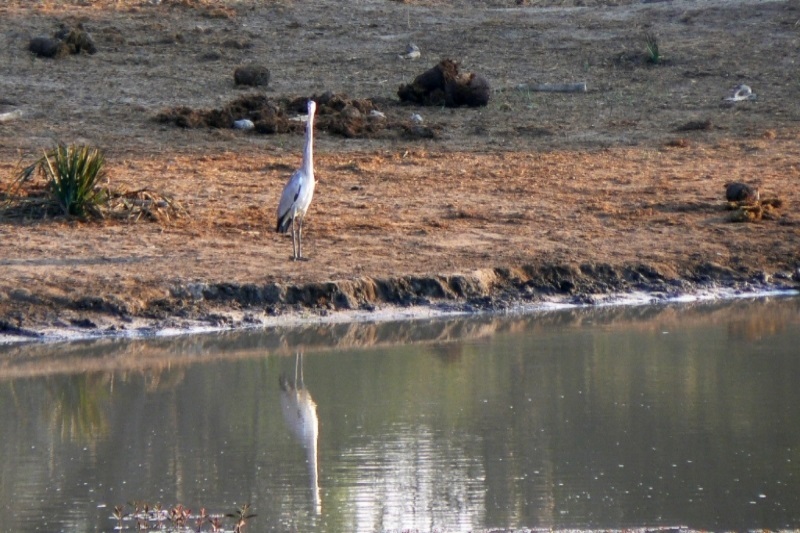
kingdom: Animalia
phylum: Chordata
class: Aves
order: Pelecaniformes
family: Ardeidae
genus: Ardea
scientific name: Ardea cinerea
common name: Grey heron
